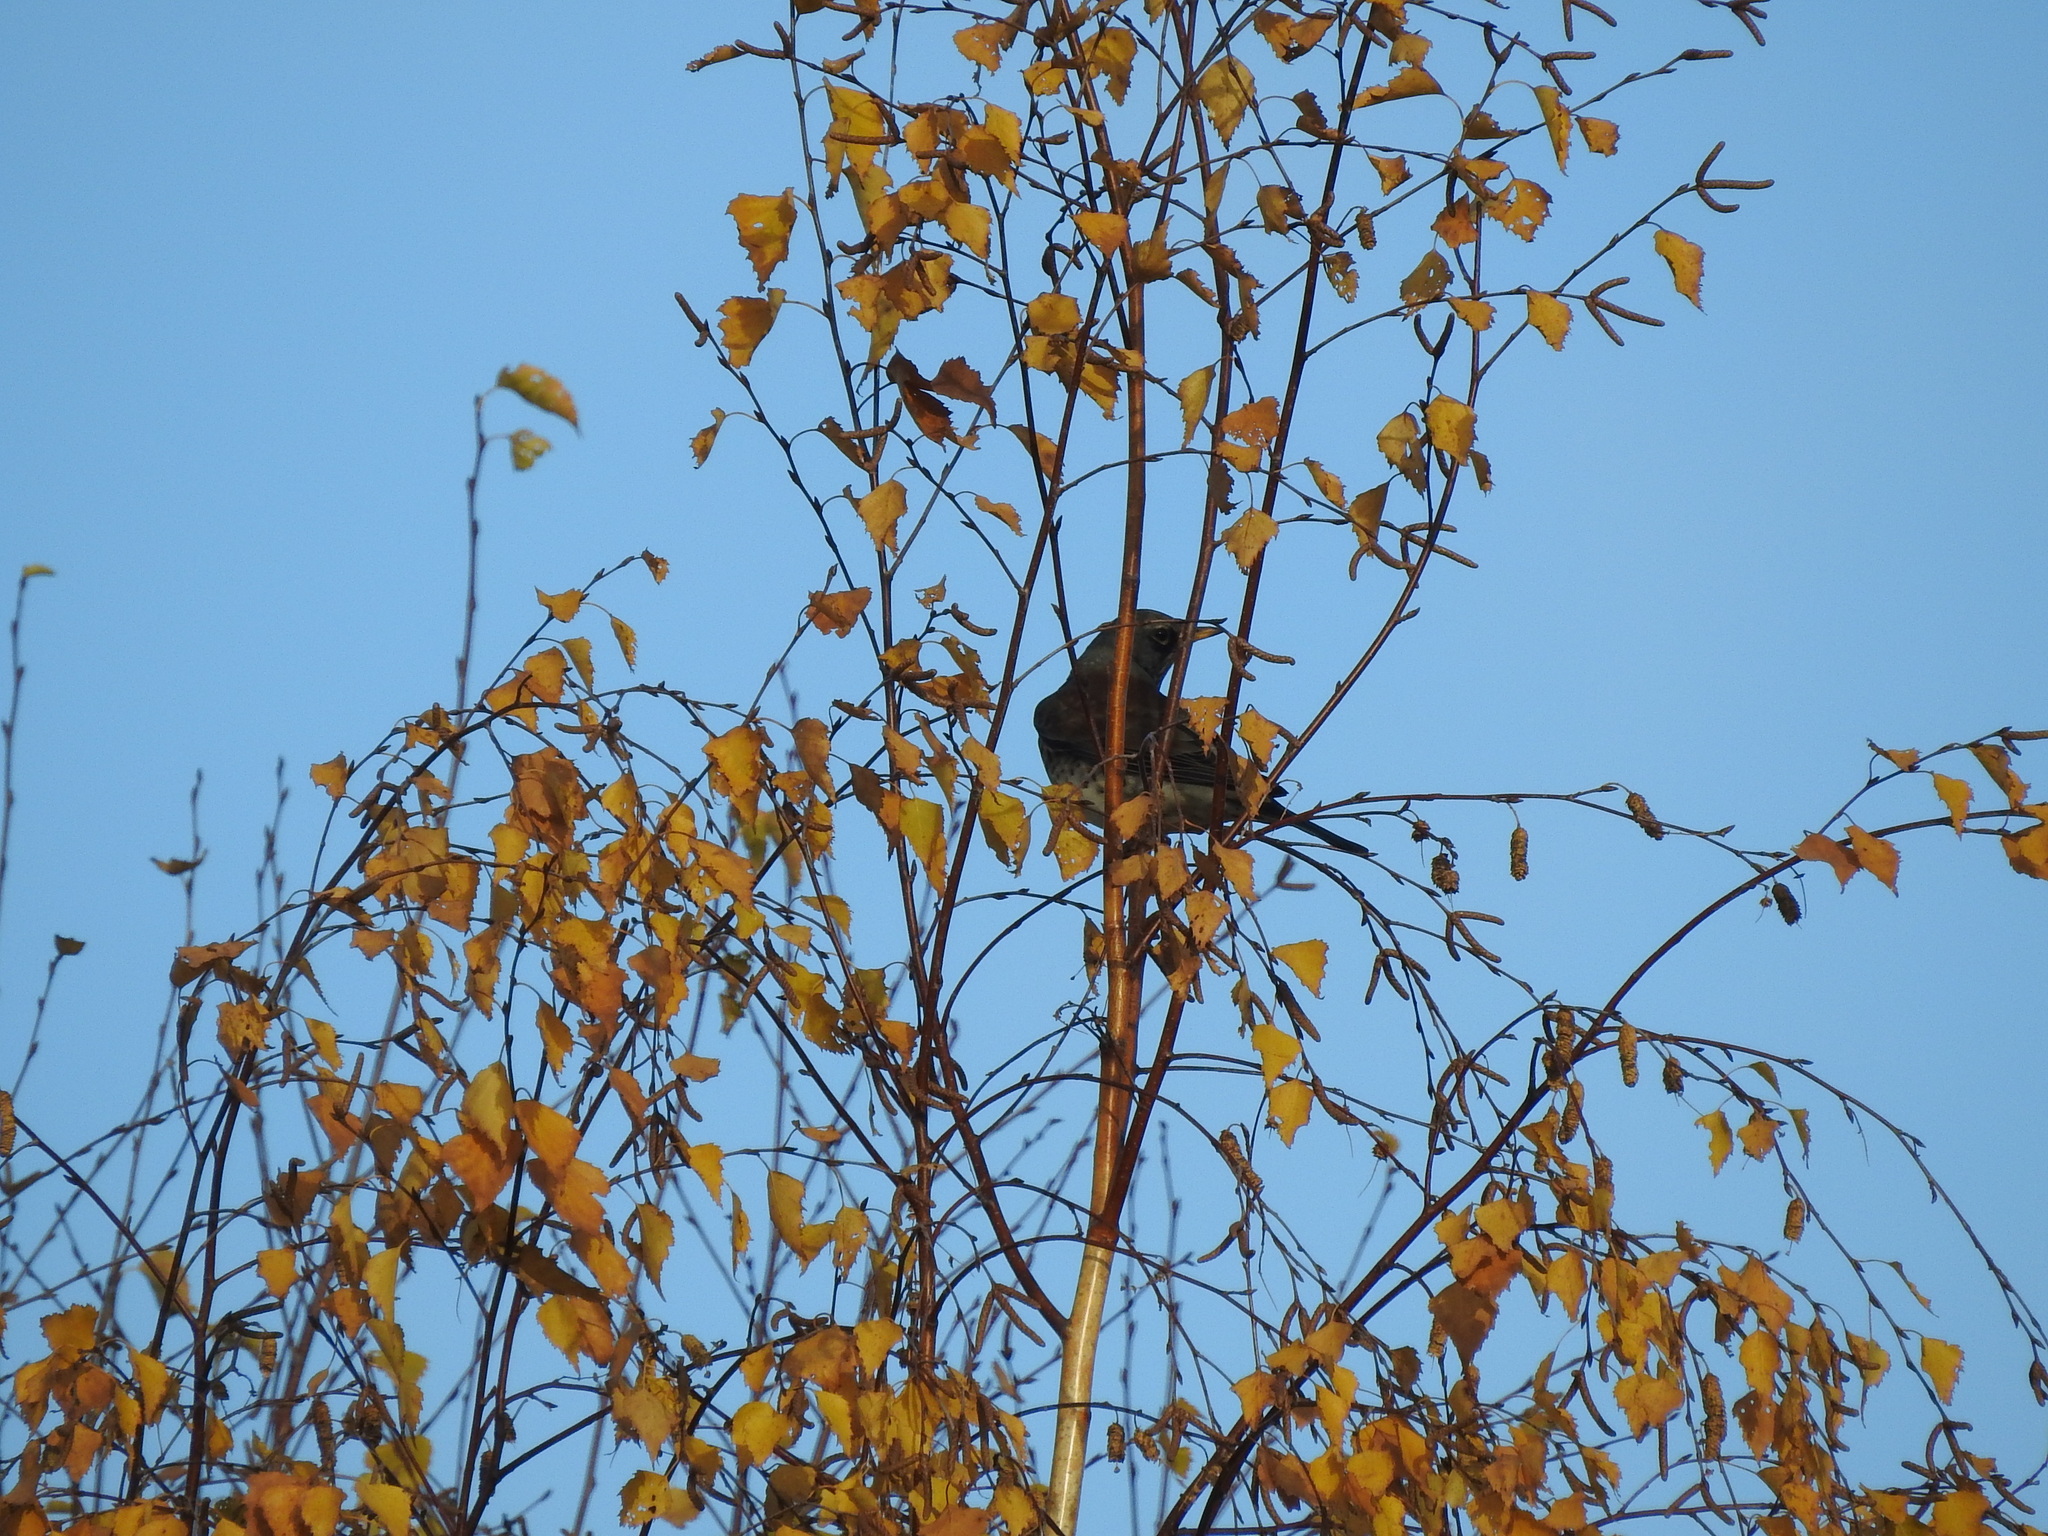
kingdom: Animalia
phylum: Chordata
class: Aves
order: Passeriformes
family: Turdidae
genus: Turdus
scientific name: Turdus pilaris
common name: Fieldfare
